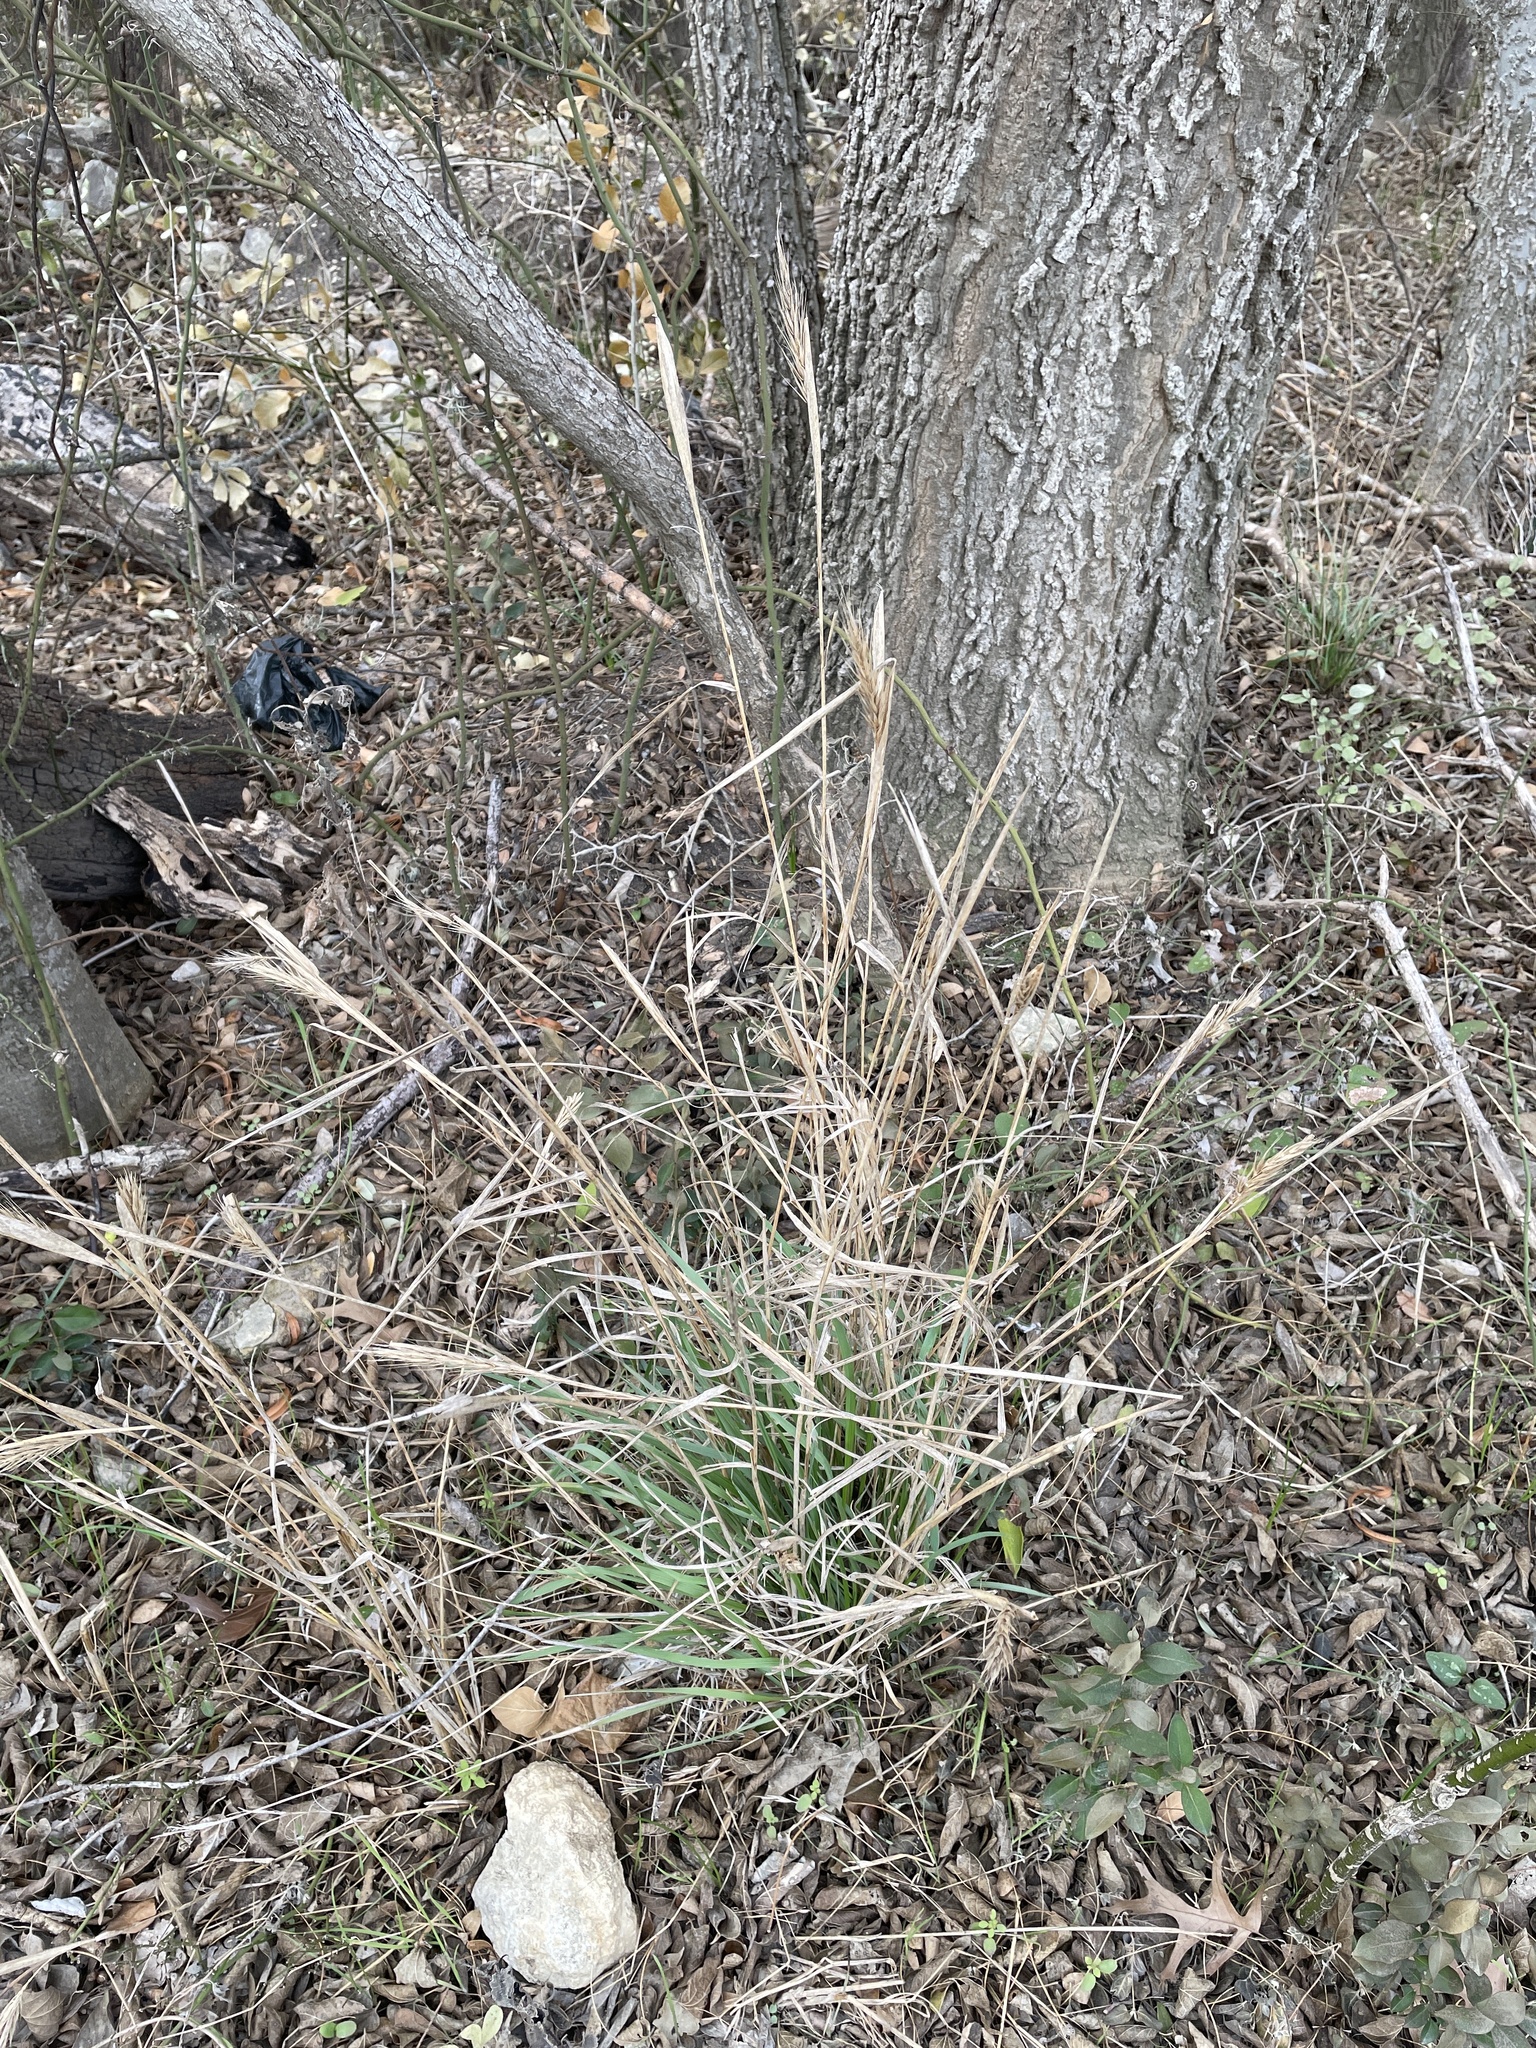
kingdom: Plantae
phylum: Tracheophyta
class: Liliopsida
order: Poales
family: Poaceae
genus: Elymus
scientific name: Elymus virginicus
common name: Common eastern wildrye
